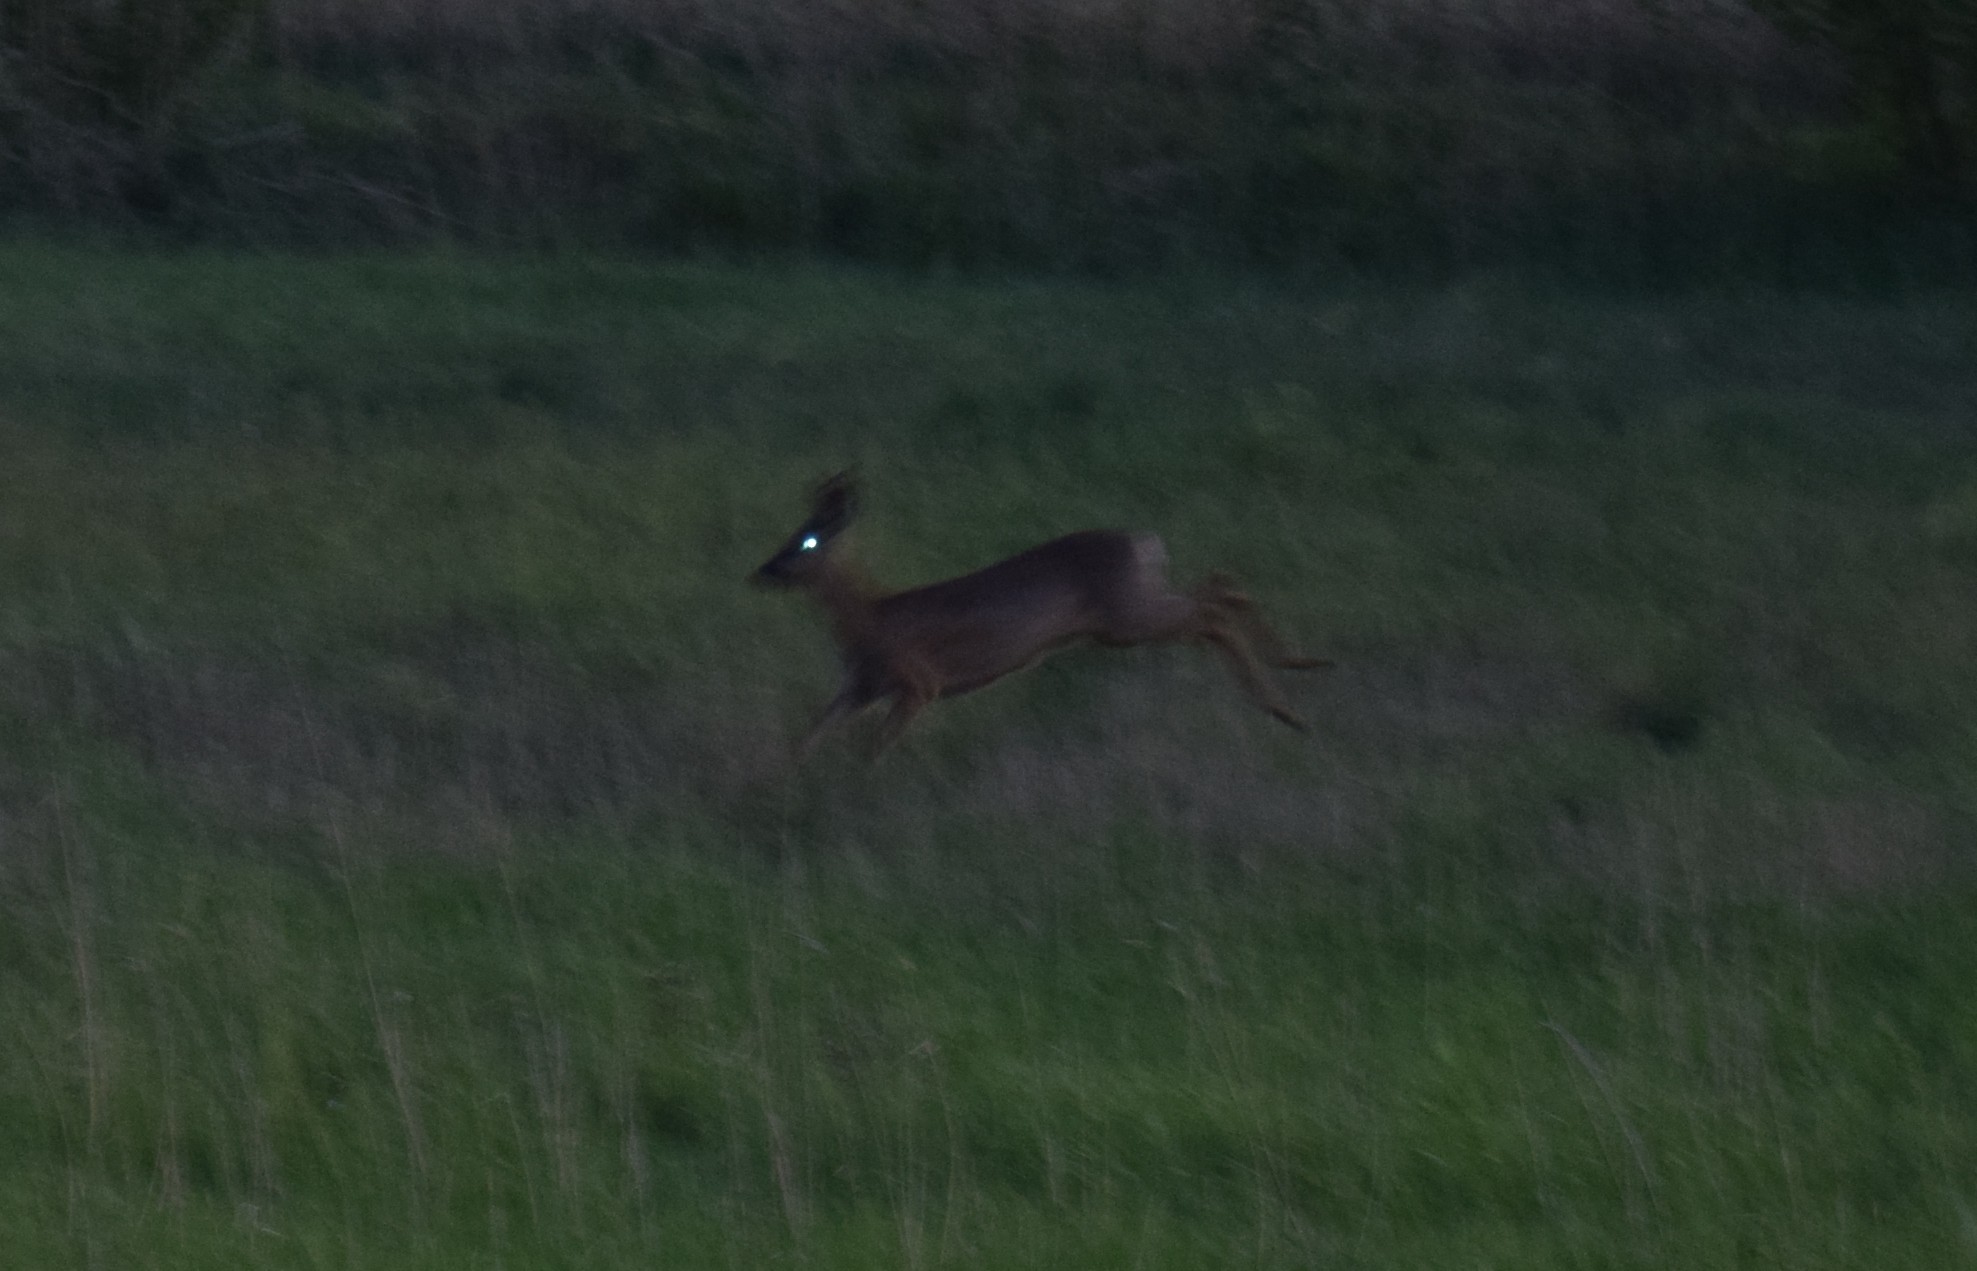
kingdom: Animalia
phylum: Chordata
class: Mammalia
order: Artiodactyla
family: Cervidae
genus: Capreolus
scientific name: Capreolus capreolus
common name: Western roe deer
